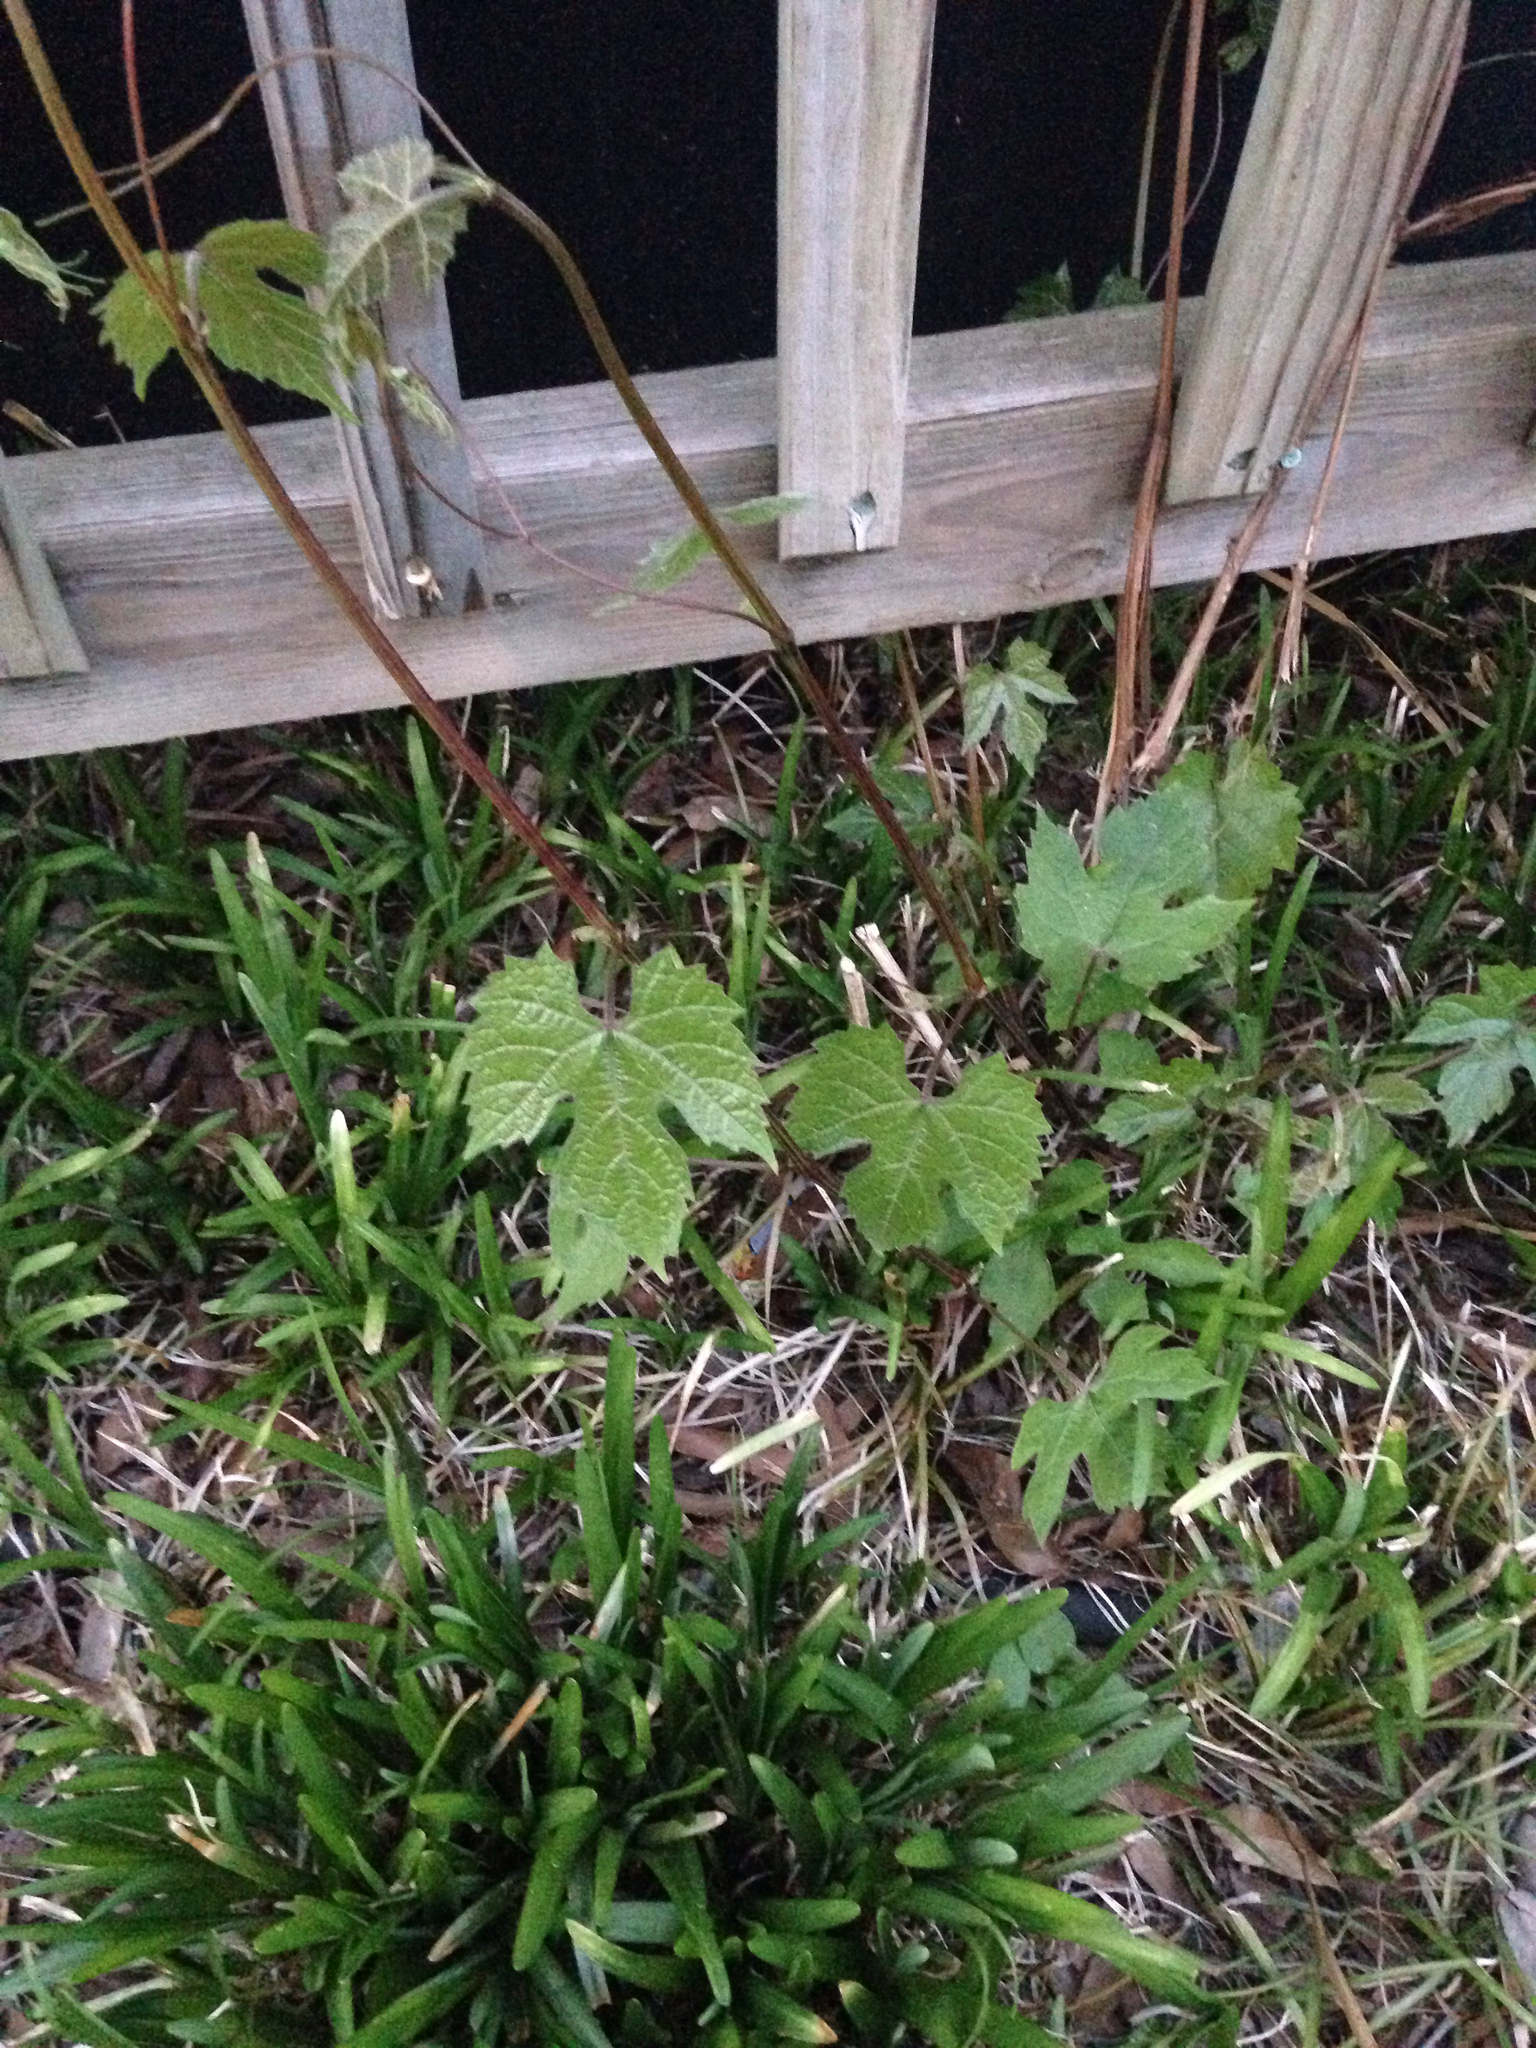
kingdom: Plantae
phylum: Tracheophyta
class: Magnoliopsida
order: Vitales
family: Vitaceae
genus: Ampelopsis
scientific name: Ampelopsis glandulosa
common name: Amur peppervine
